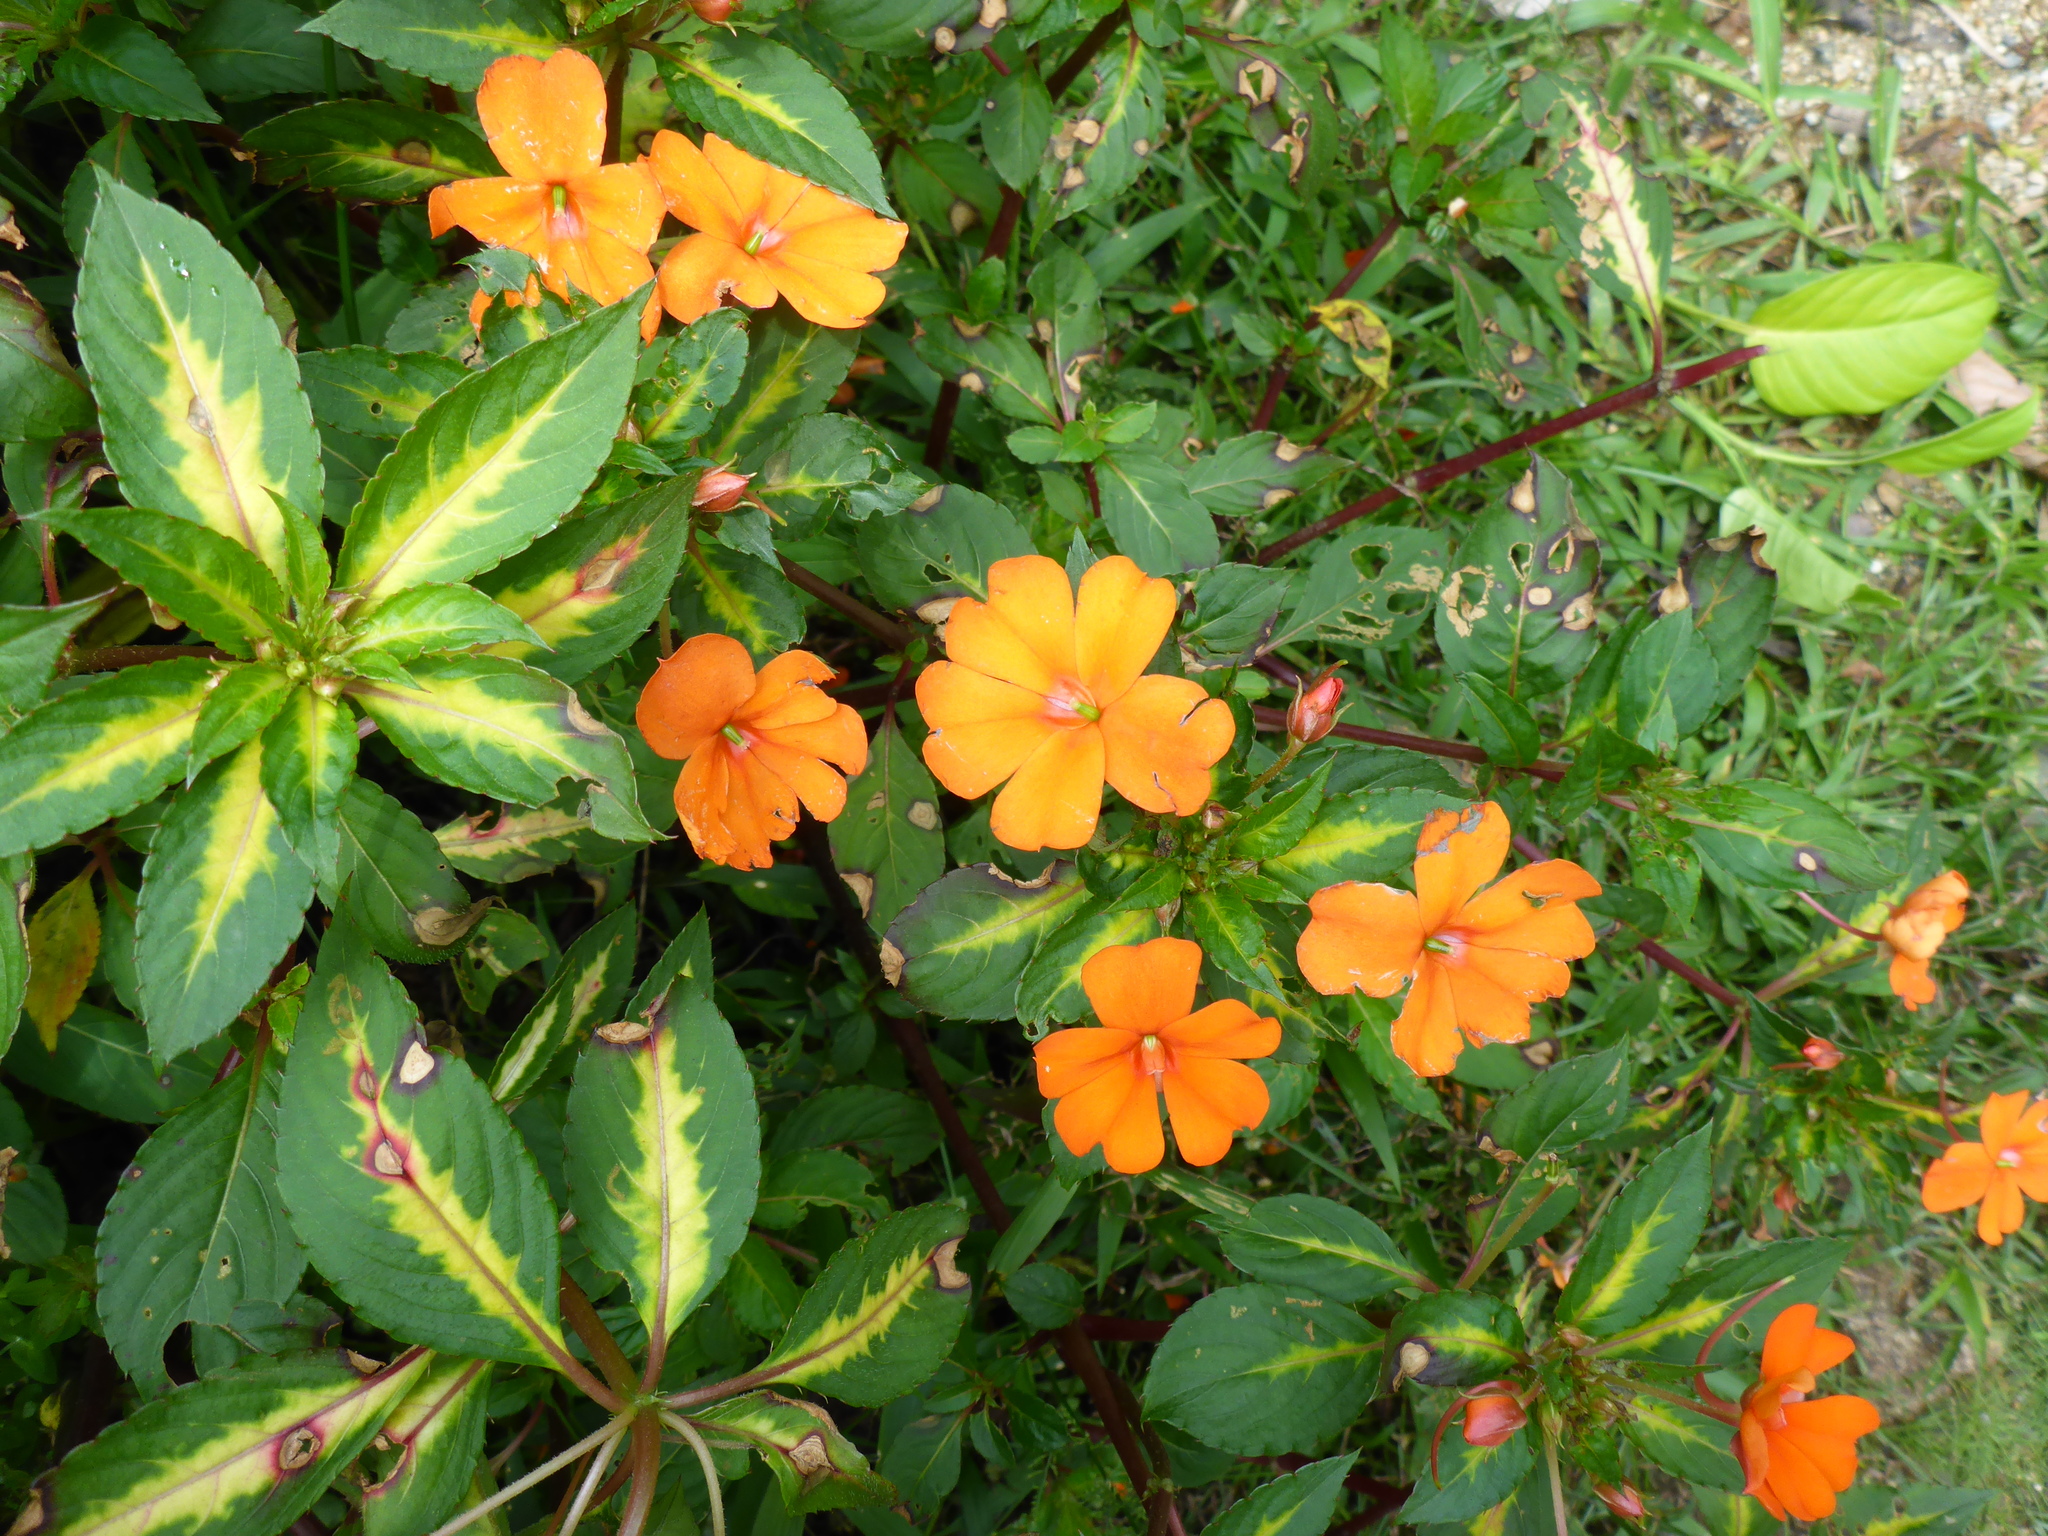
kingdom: Plantae
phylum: Tracheophyta
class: Magnoliopsida
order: Ericales
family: Balsaminaceae
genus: Impatiens
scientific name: Impatiens hawkeri
